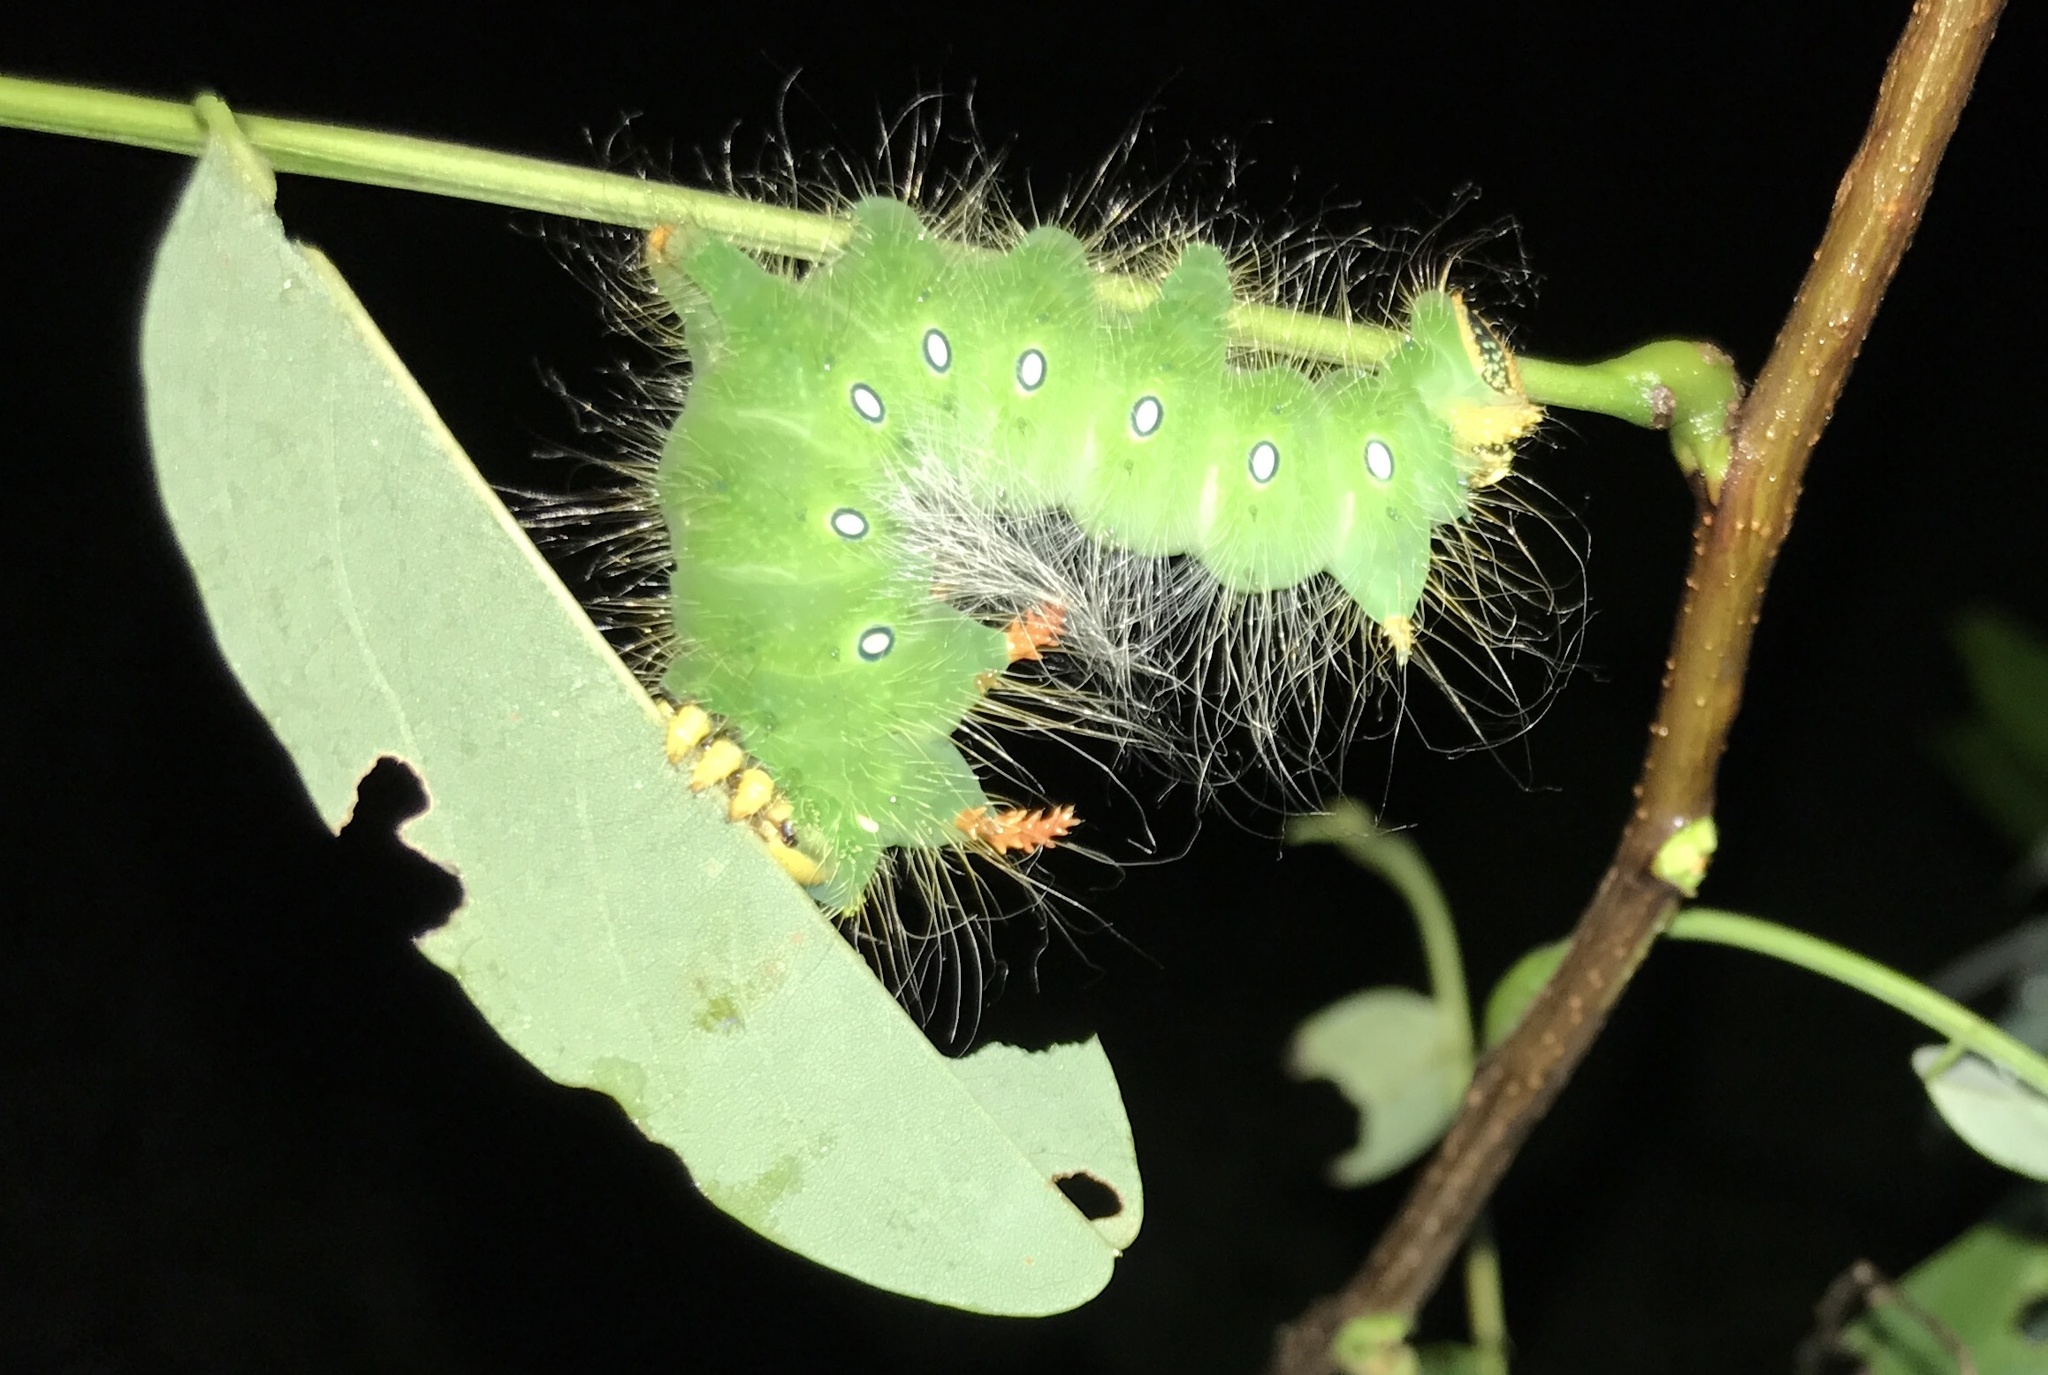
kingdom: Animalia
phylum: Arthropoda
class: Insecta
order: Lepidoptera
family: Saturniidae
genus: Eacles
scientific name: Eacles imperialis
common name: Imperial moth
